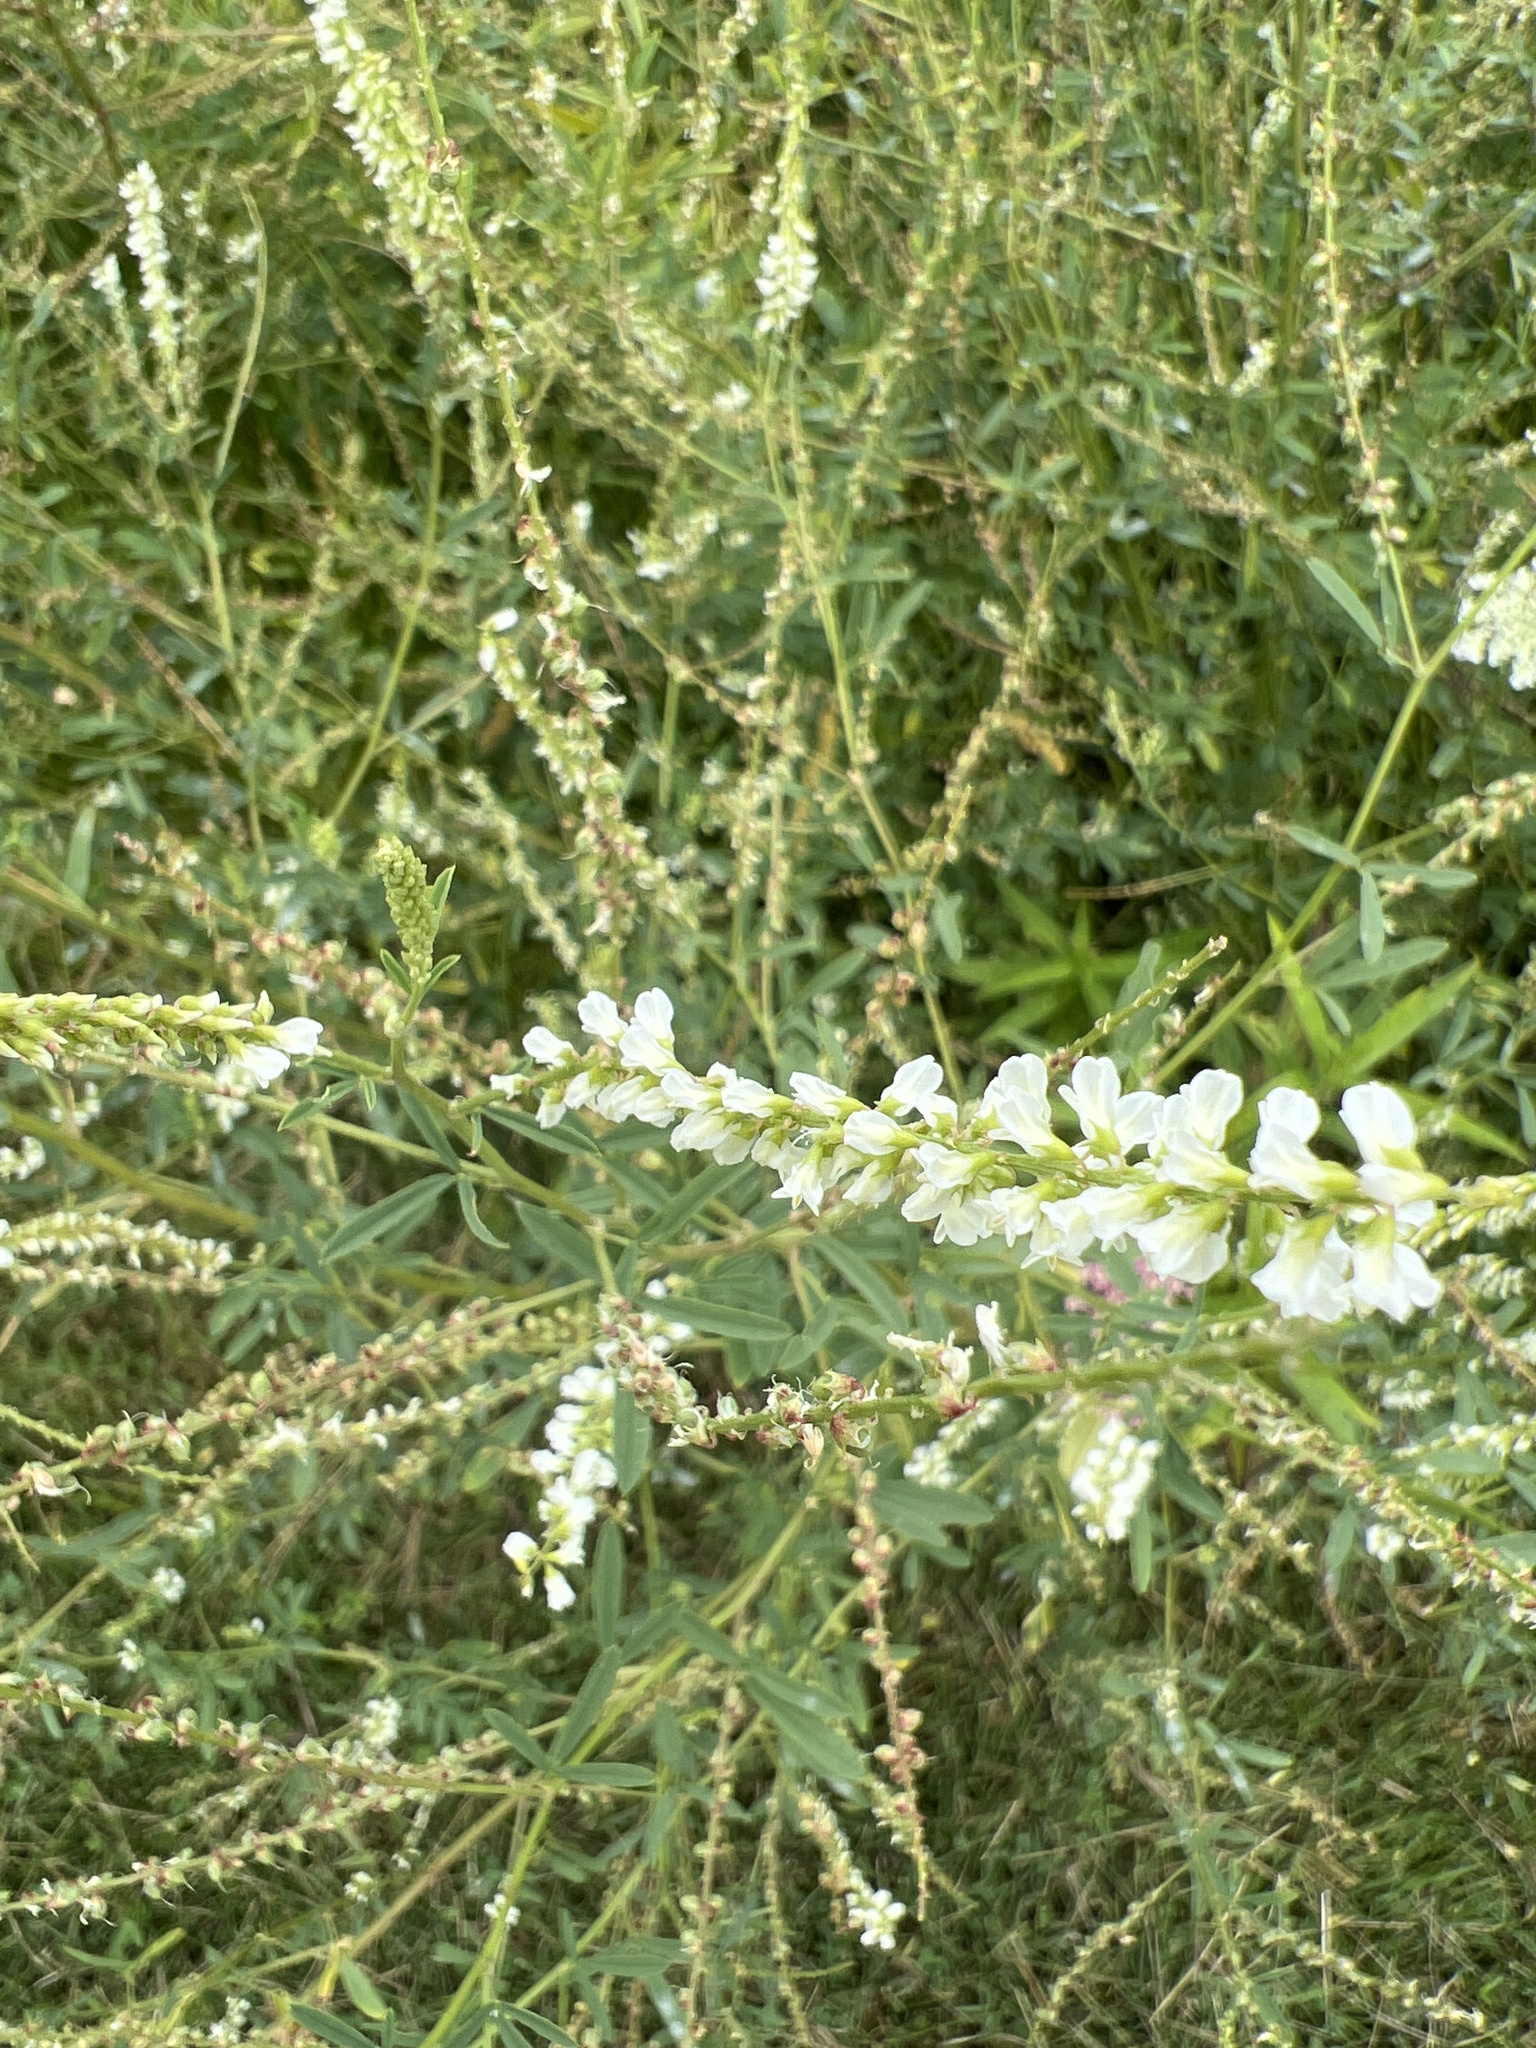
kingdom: Plantae
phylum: Tracheophyta
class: Magnoliopsida
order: Fabales
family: Fabaceae
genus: Melilotus
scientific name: Melilotus albus
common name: White melilot
